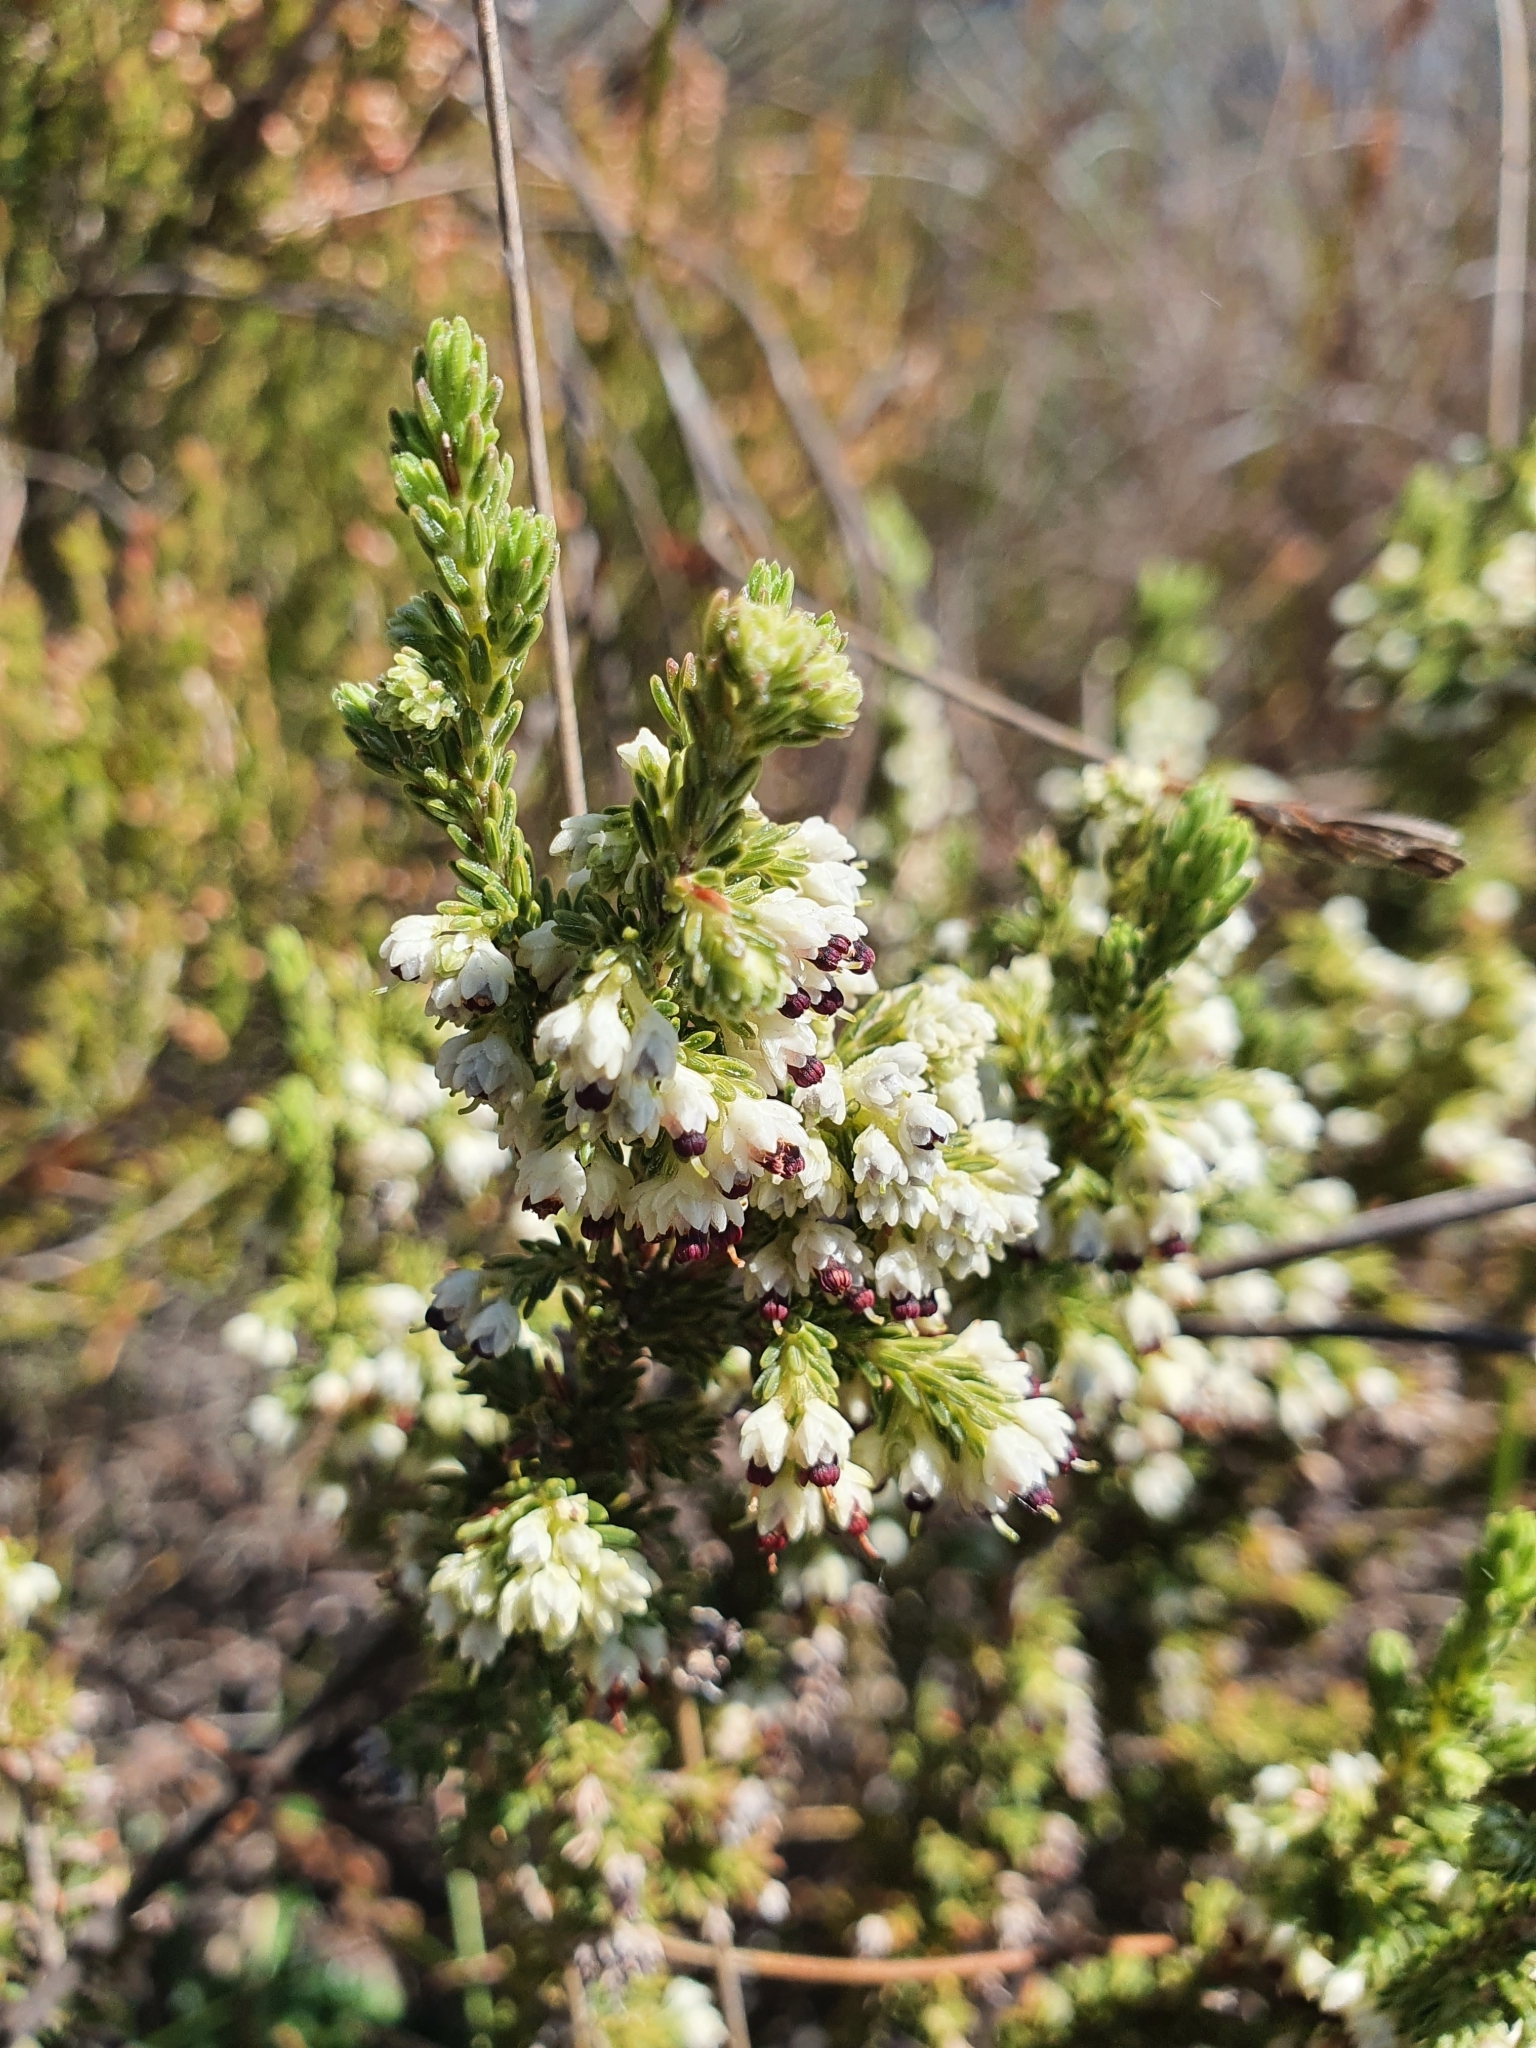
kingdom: Plantae
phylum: Tracheophyta
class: Magnoliopsida
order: Ericales
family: Ericaceae
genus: Erica
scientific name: Erica imbricata
